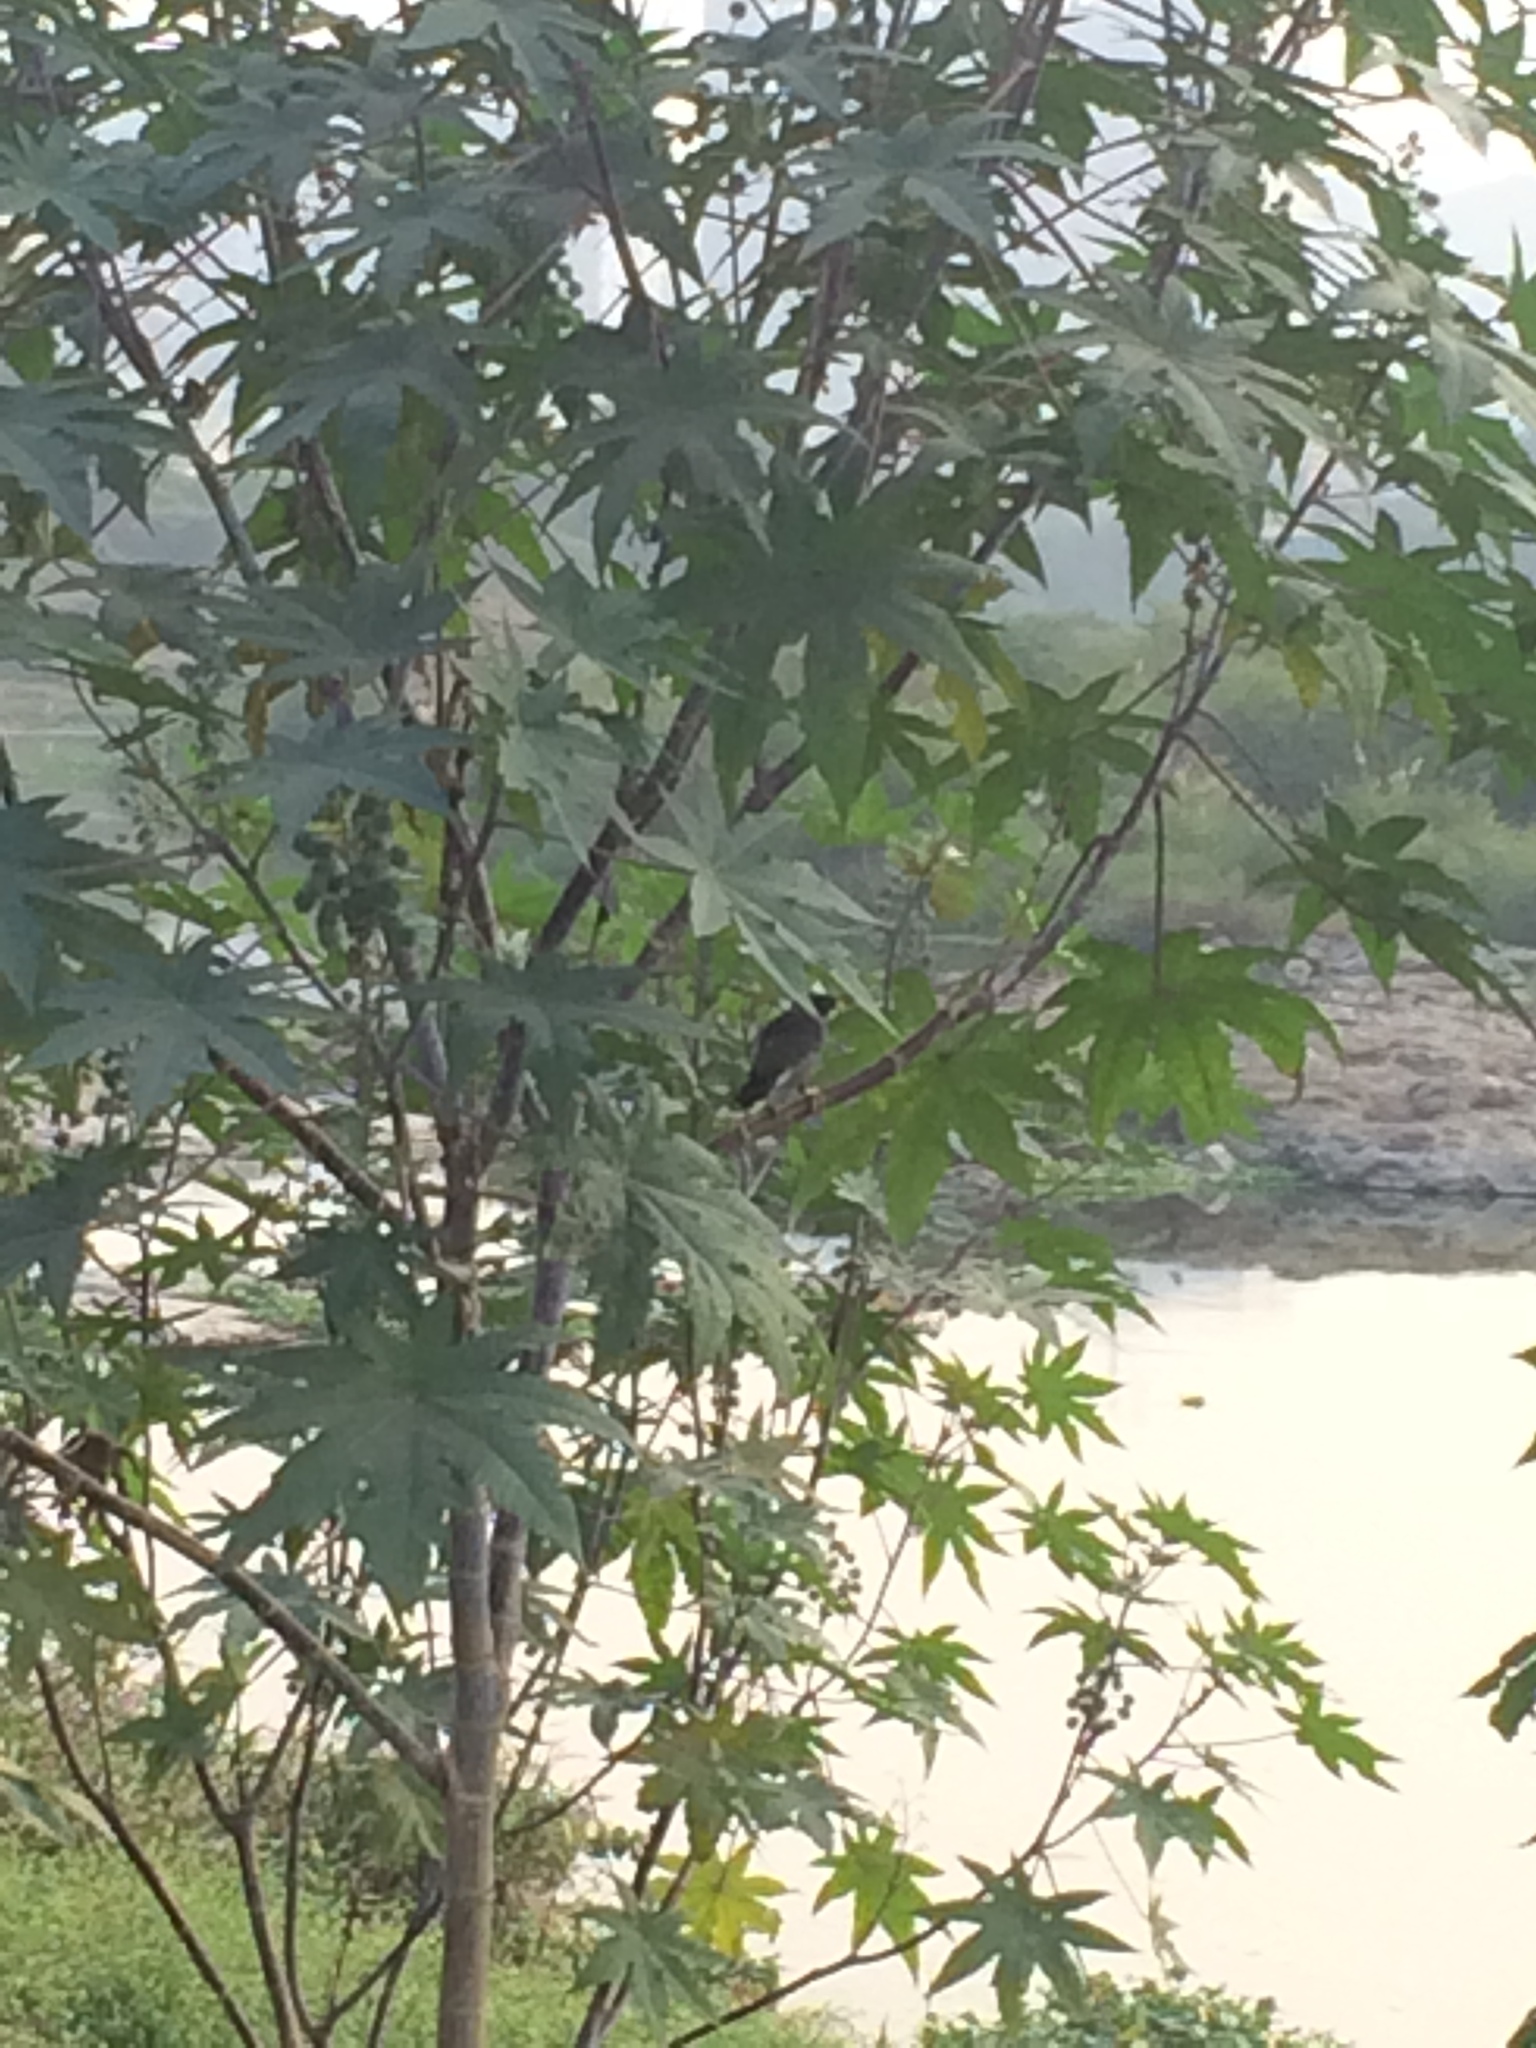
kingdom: Animalia
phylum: Chordata
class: Aves
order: Passeriformes
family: Sturnidae
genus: Acridotheres
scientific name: Acridotheres fuscus
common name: Jungle myna
